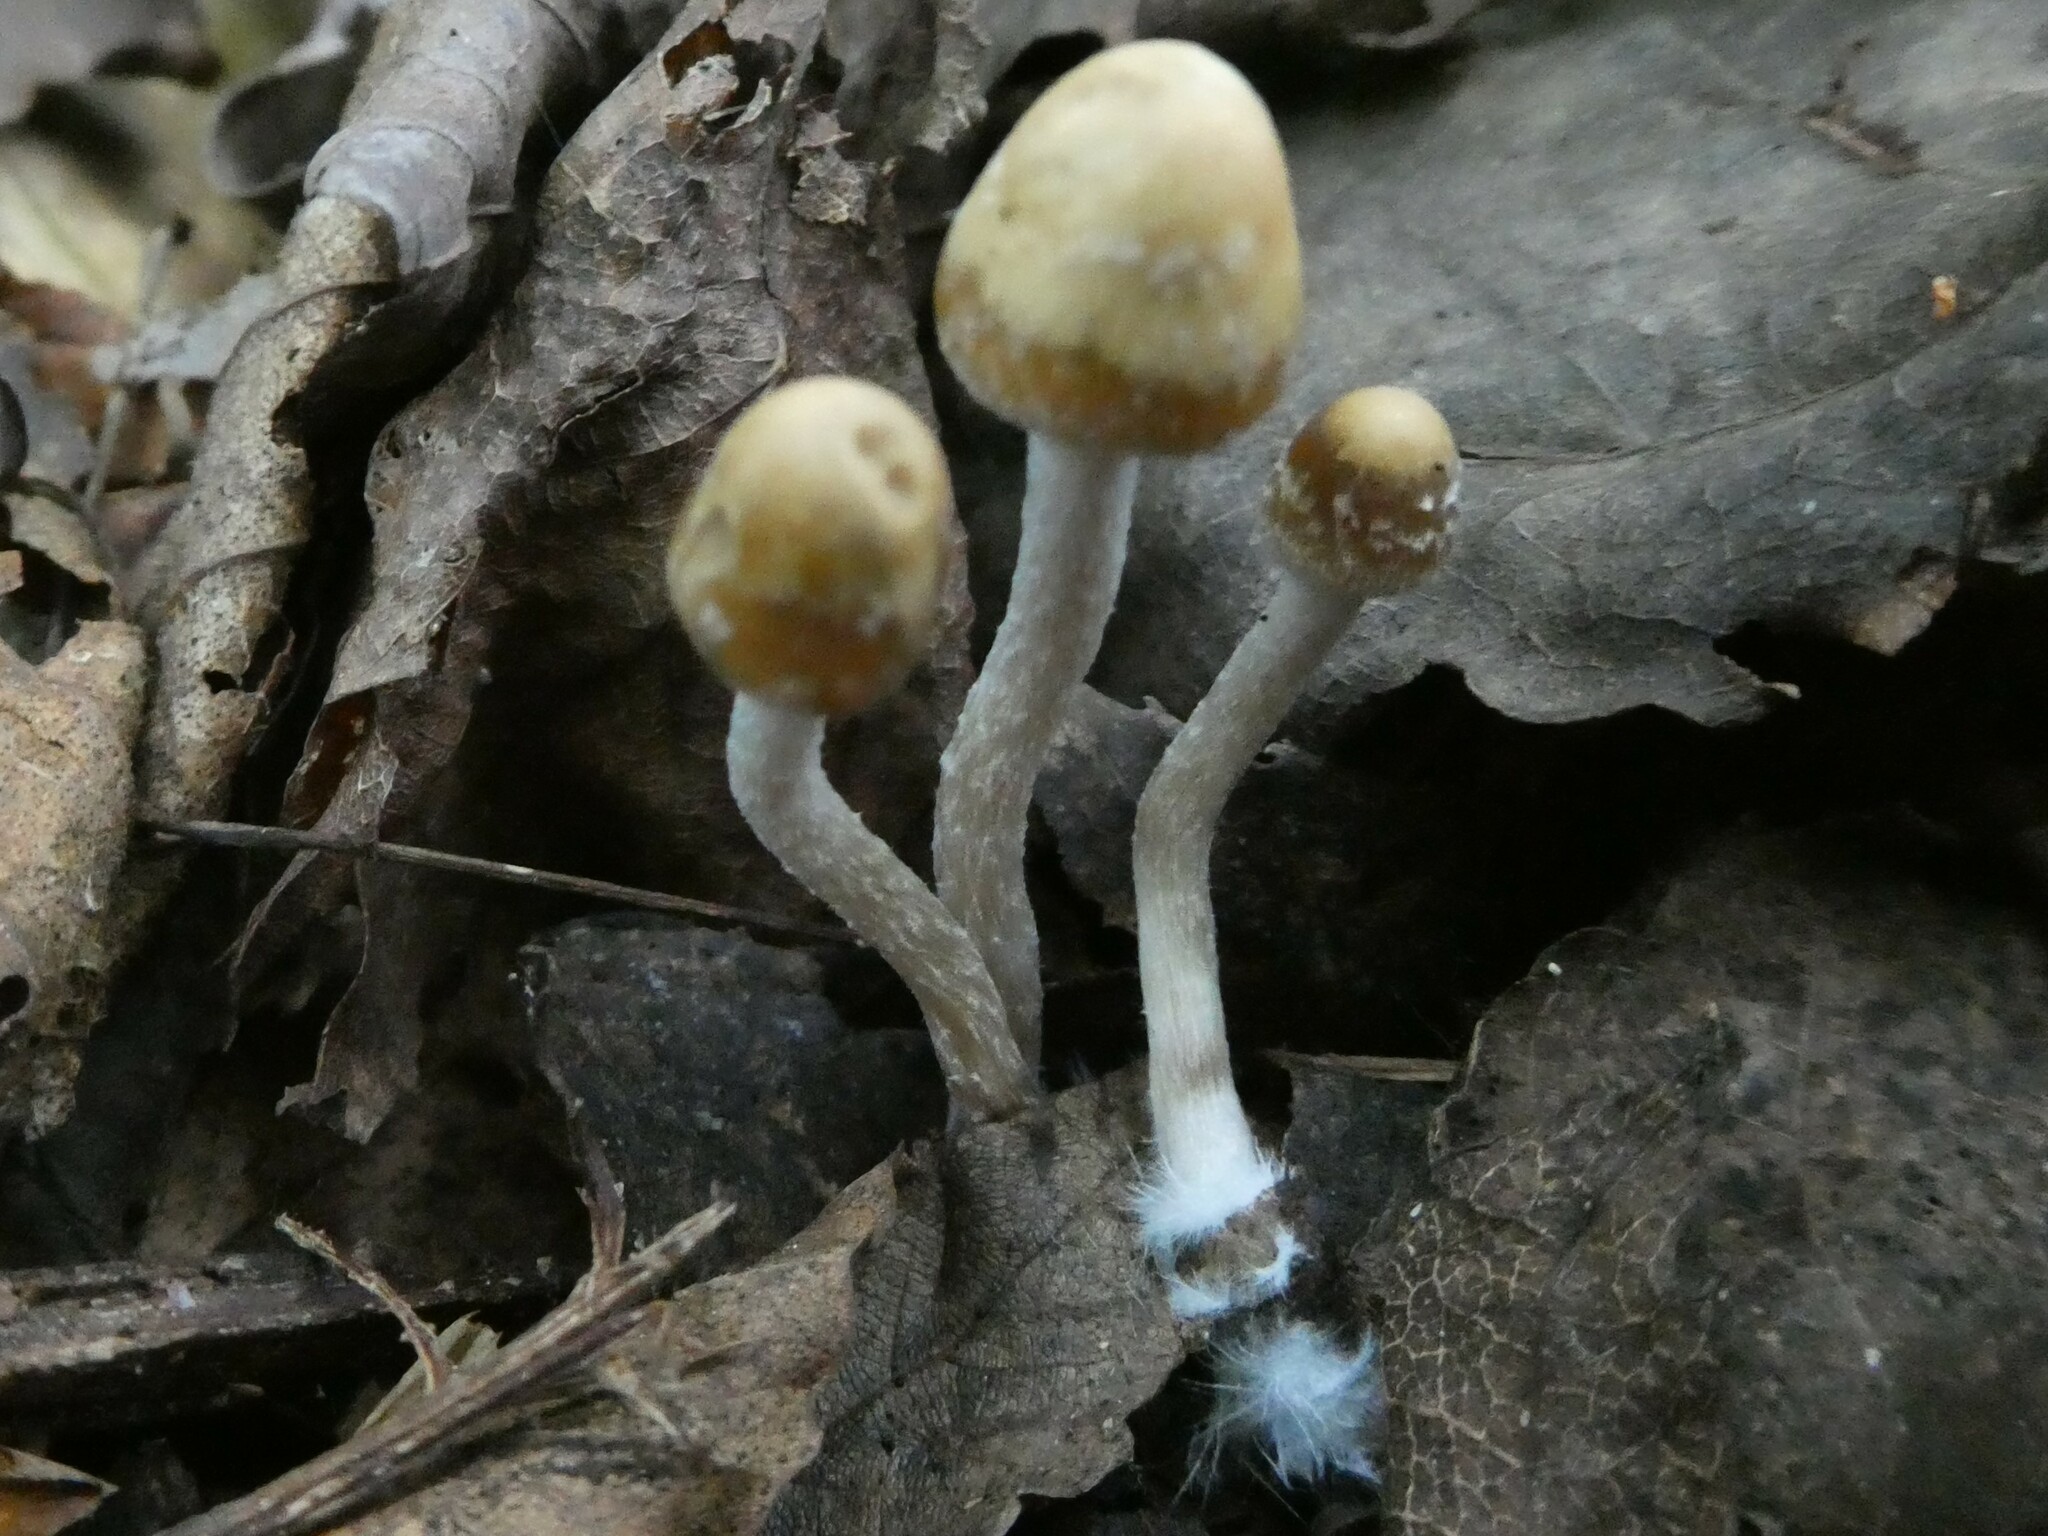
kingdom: Fungi
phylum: Basidiomycota
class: Agaricomycetes
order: Agaricales
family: Hymenogastraceae
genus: Psilocybe
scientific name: Psilocybe caerulipes
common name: Blue-foot
